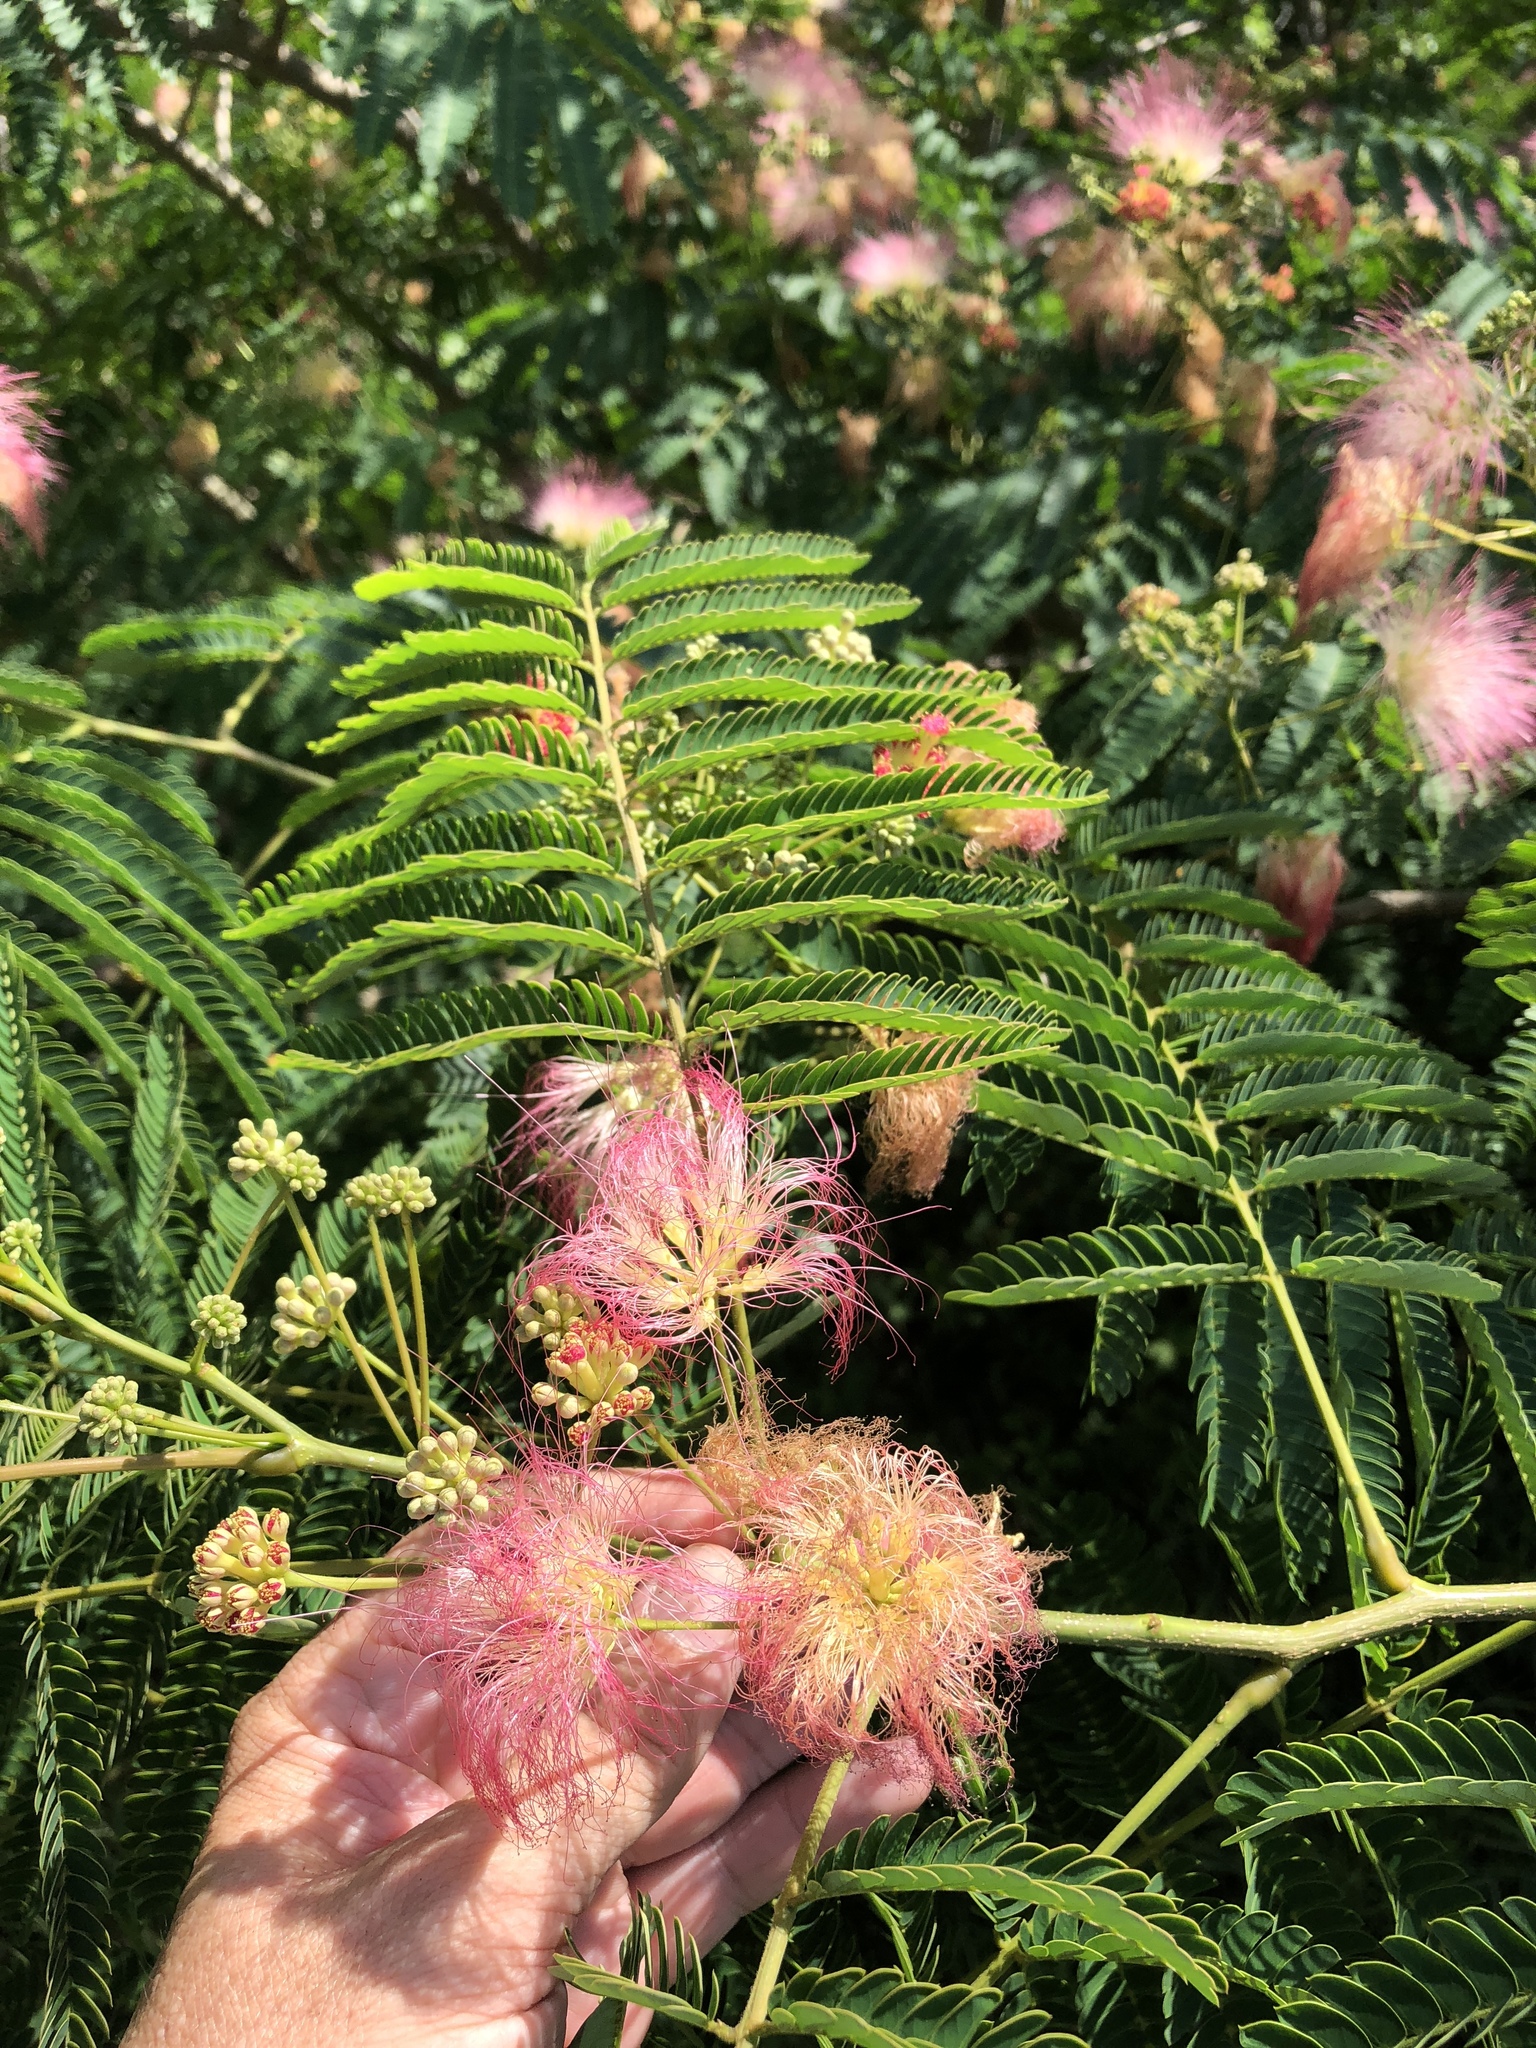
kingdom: Plantae
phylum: Tracheophyta
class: Magnoliopsida
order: Fabales
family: Fabaceae
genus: Albizia
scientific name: Albizia julibrissin
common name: Silktree
